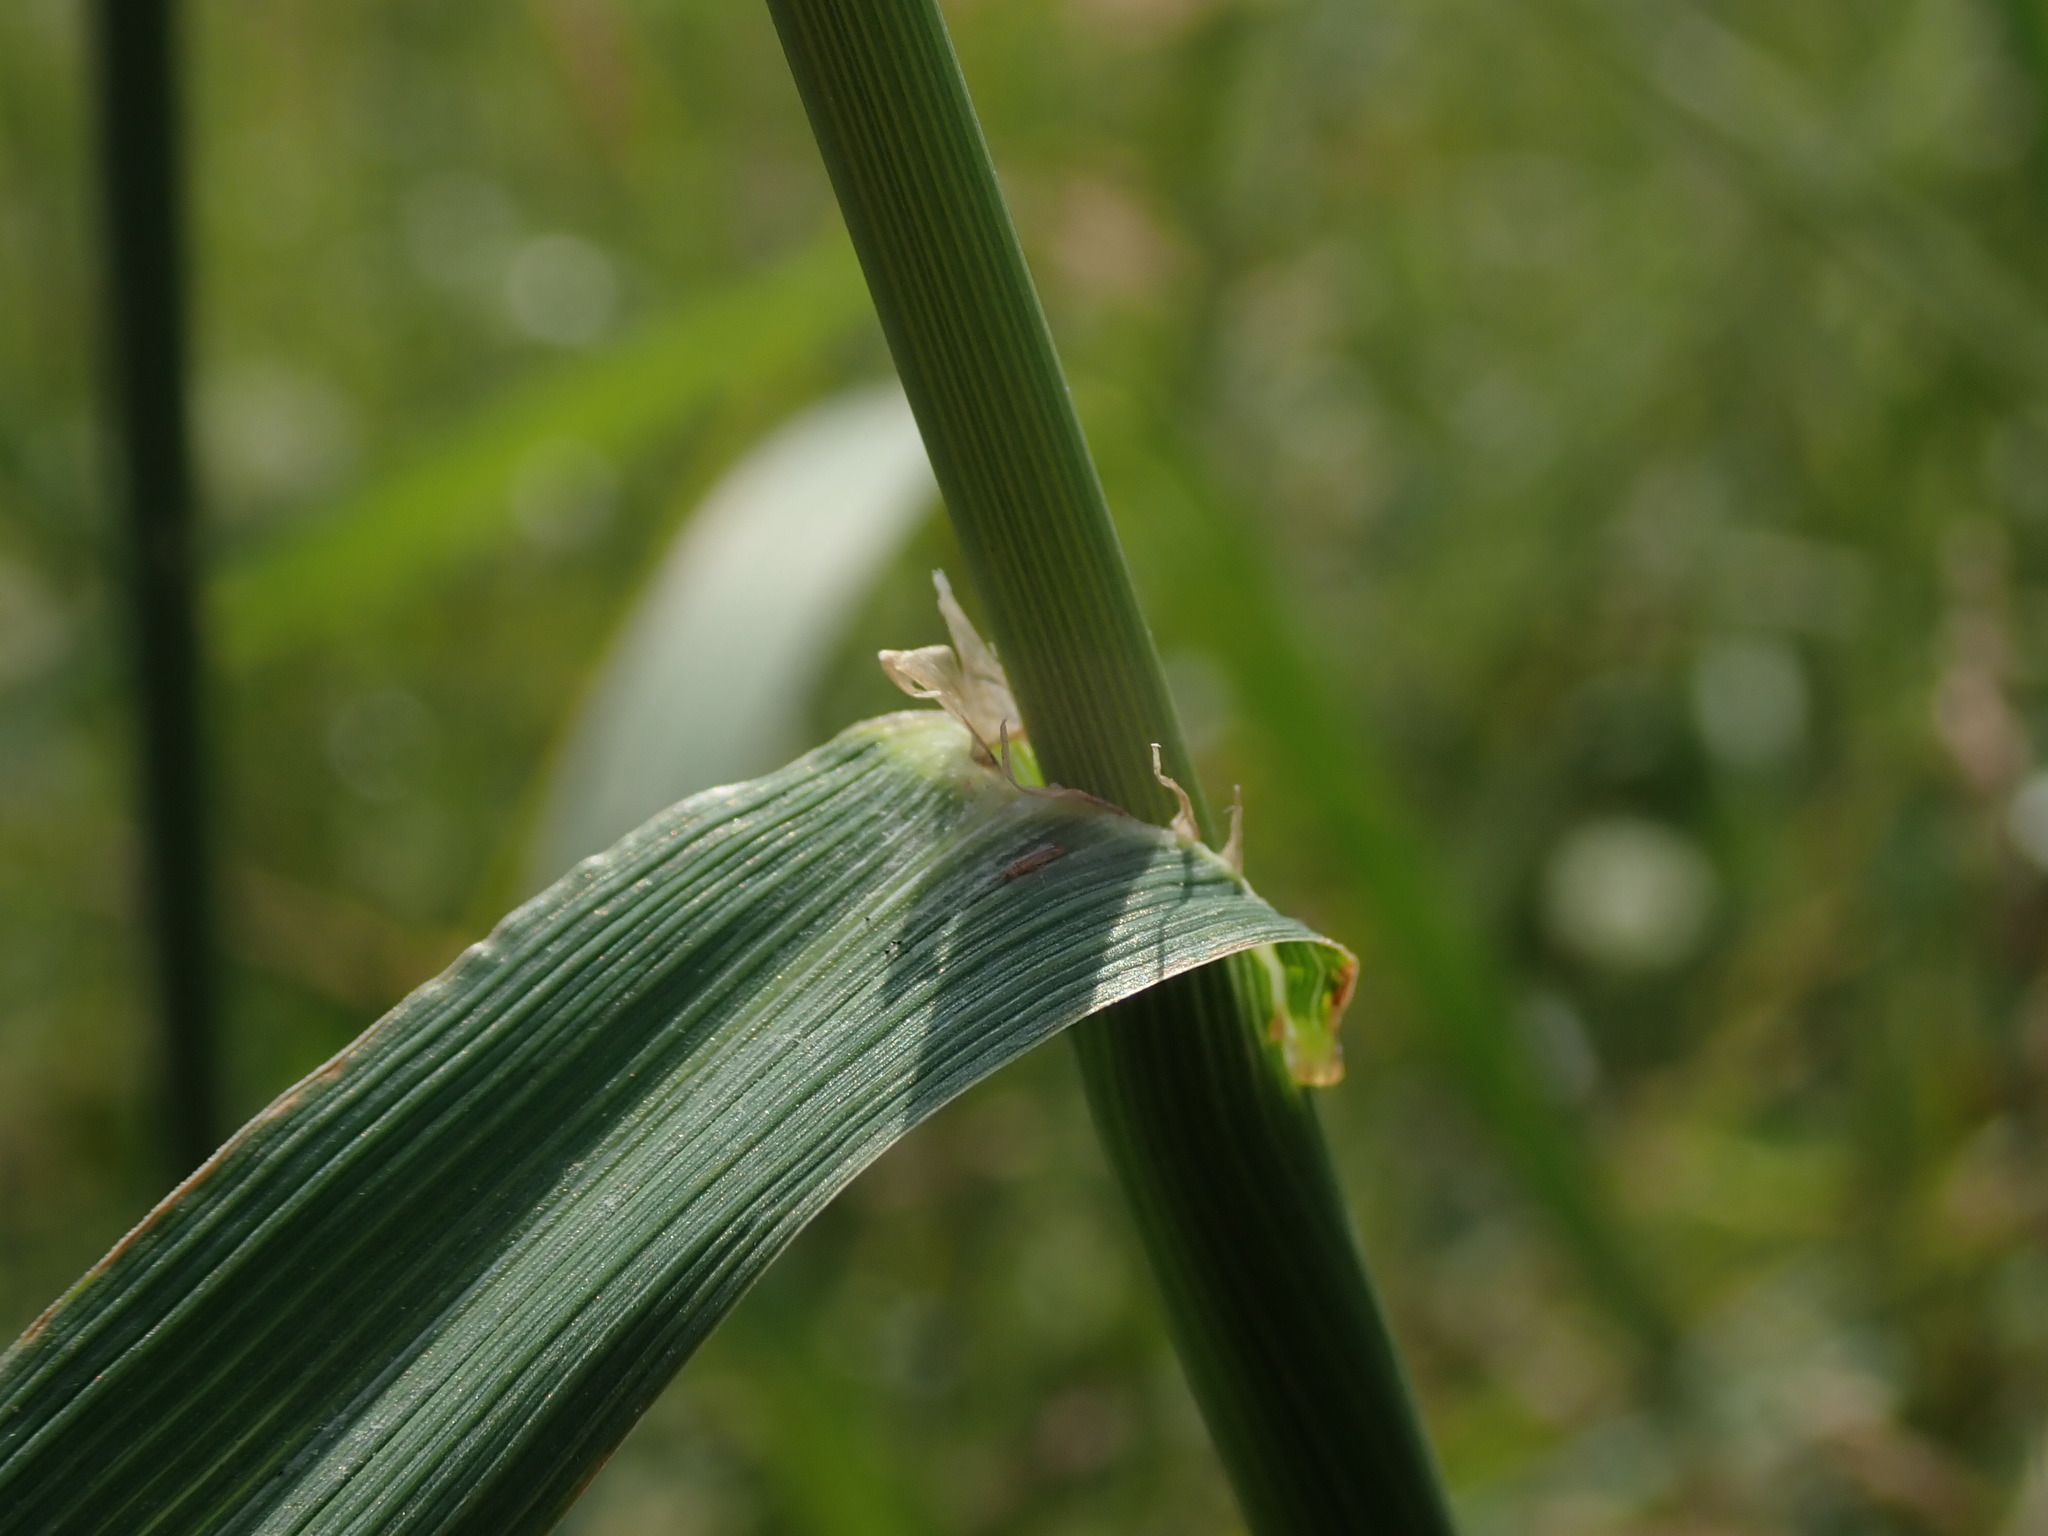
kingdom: Plantae
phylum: Tracheophyta
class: Liliopsida
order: Poales
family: Poaceae
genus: Phleum
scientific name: Phleum pratense
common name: Timothy grass
